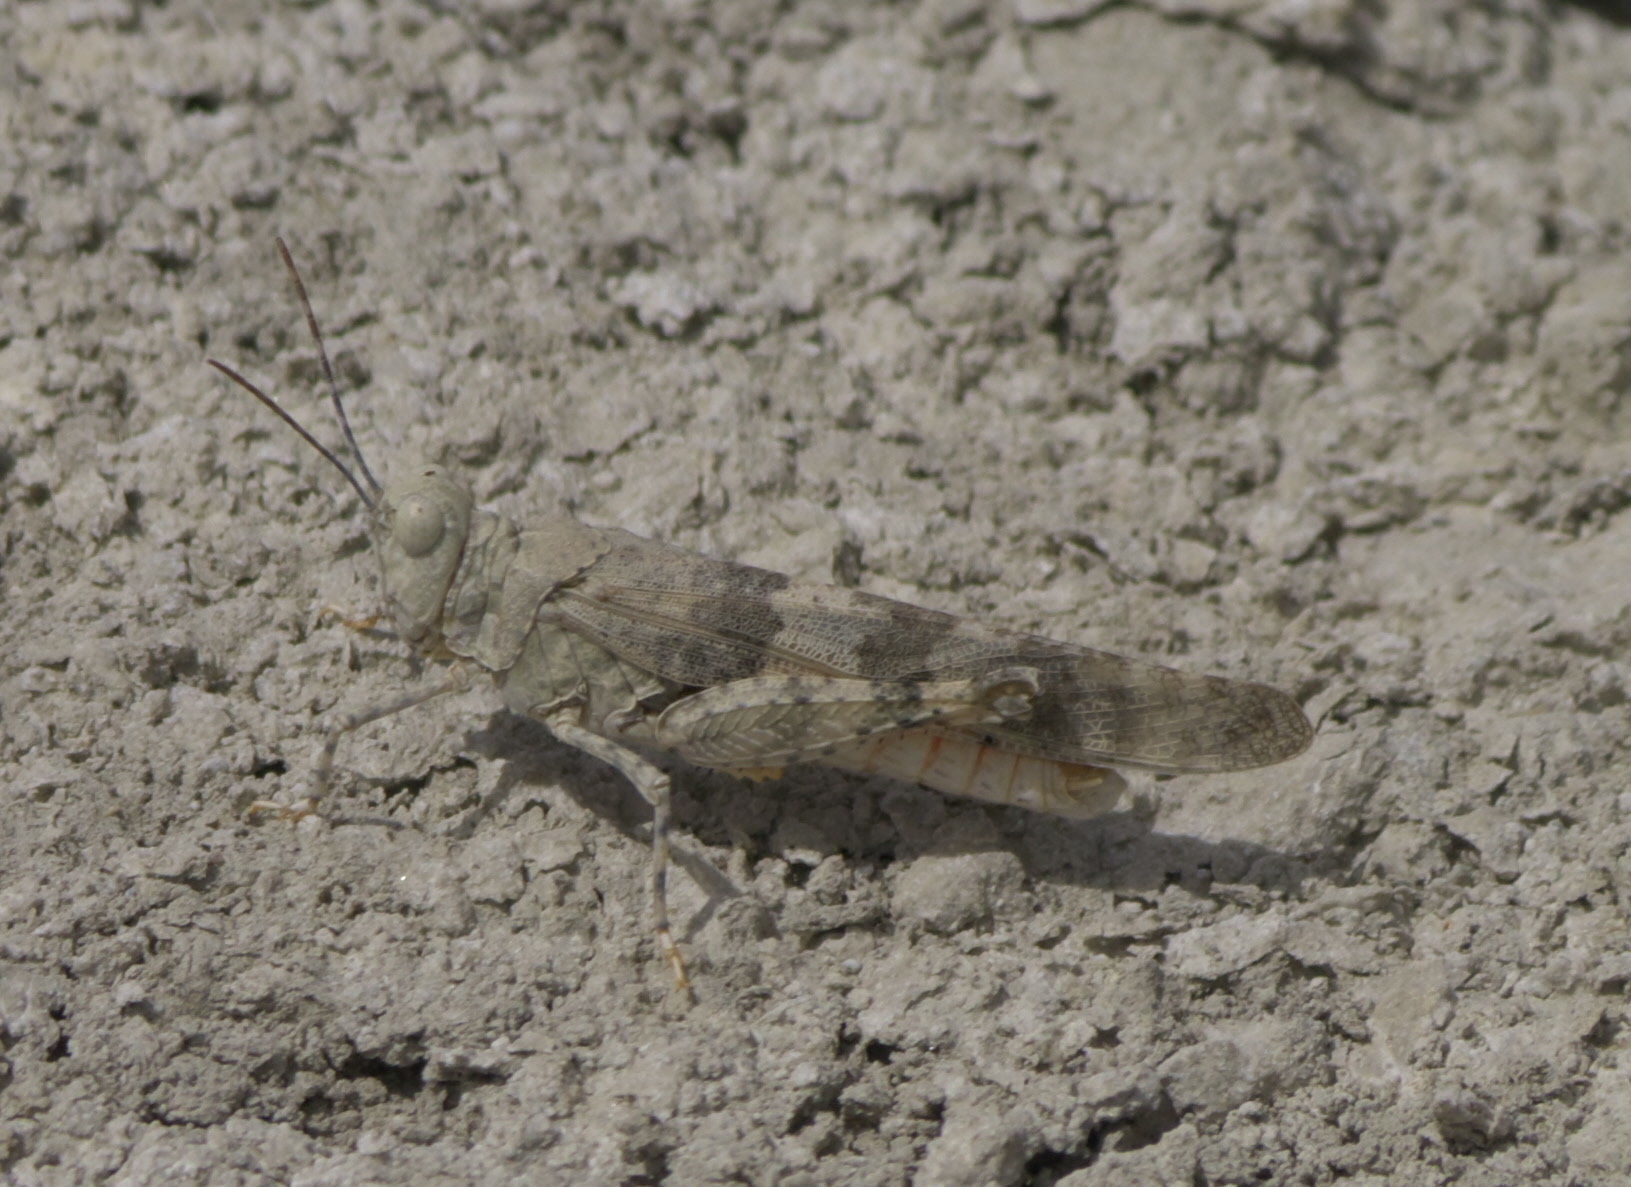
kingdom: Animalia
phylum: Arthropoda
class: Insecta
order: Orthoptera
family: Acrididae
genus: Trimerotropis
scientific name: Trimerotropis pallidipennis
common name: Pallid-winged grasshopper
